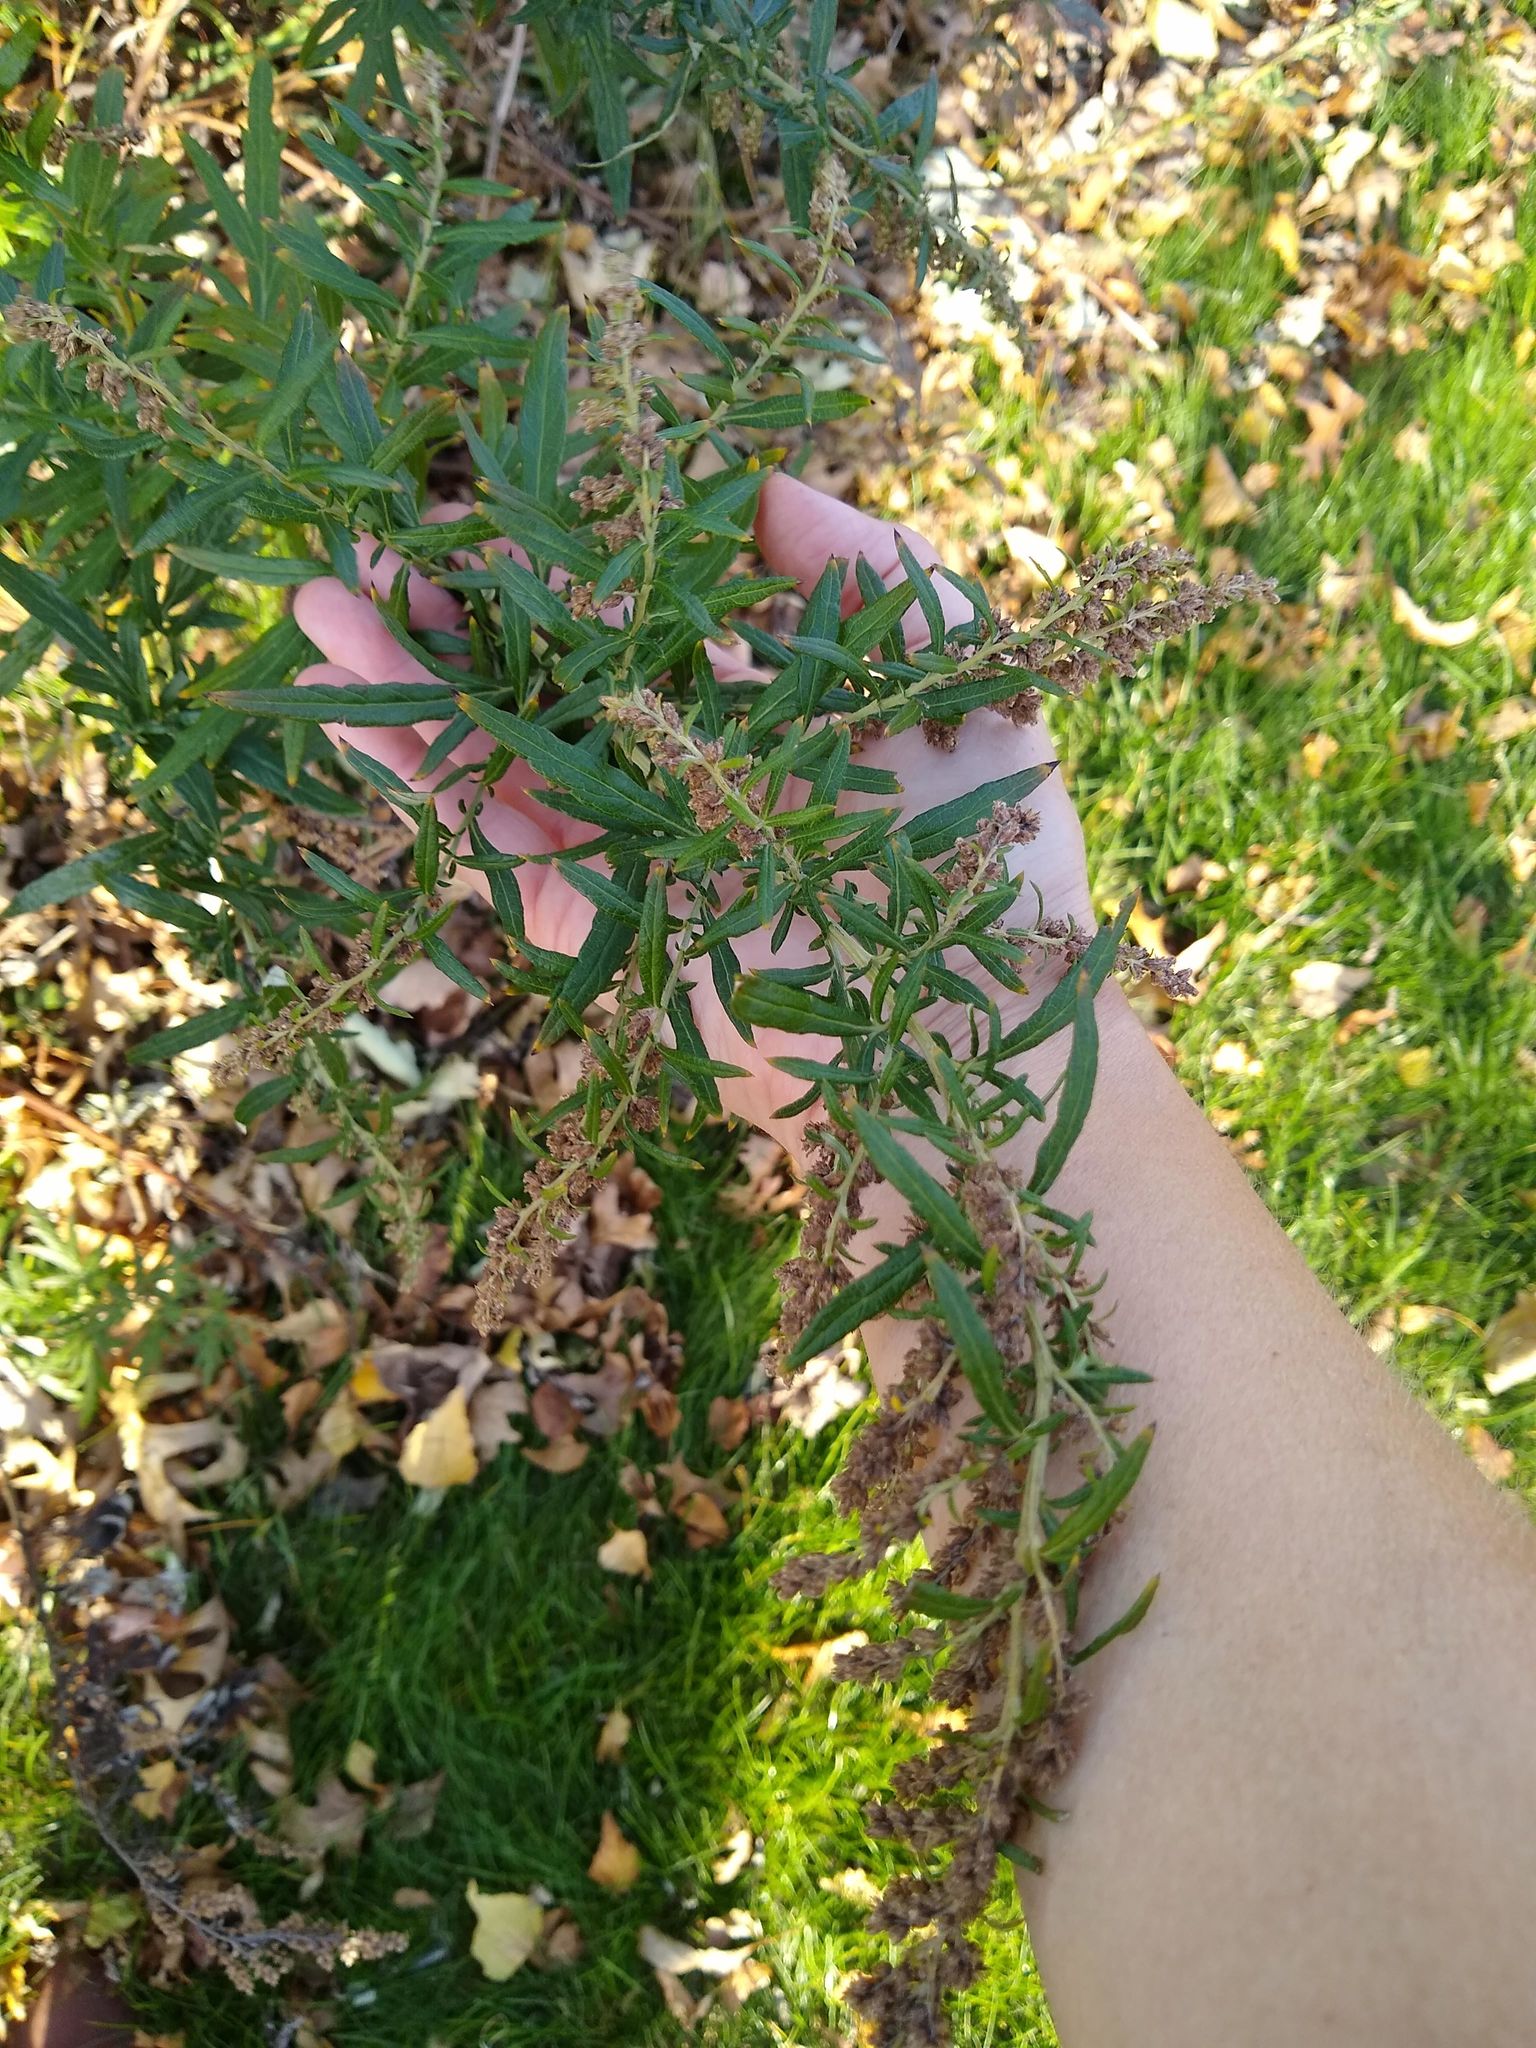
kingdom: Plantae
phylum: Tracheophyta
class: Magnoliopsida
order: Asterales
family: Asteraceae
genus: Artemisia
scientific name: Artemisia vulgaris
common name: Mugwort
